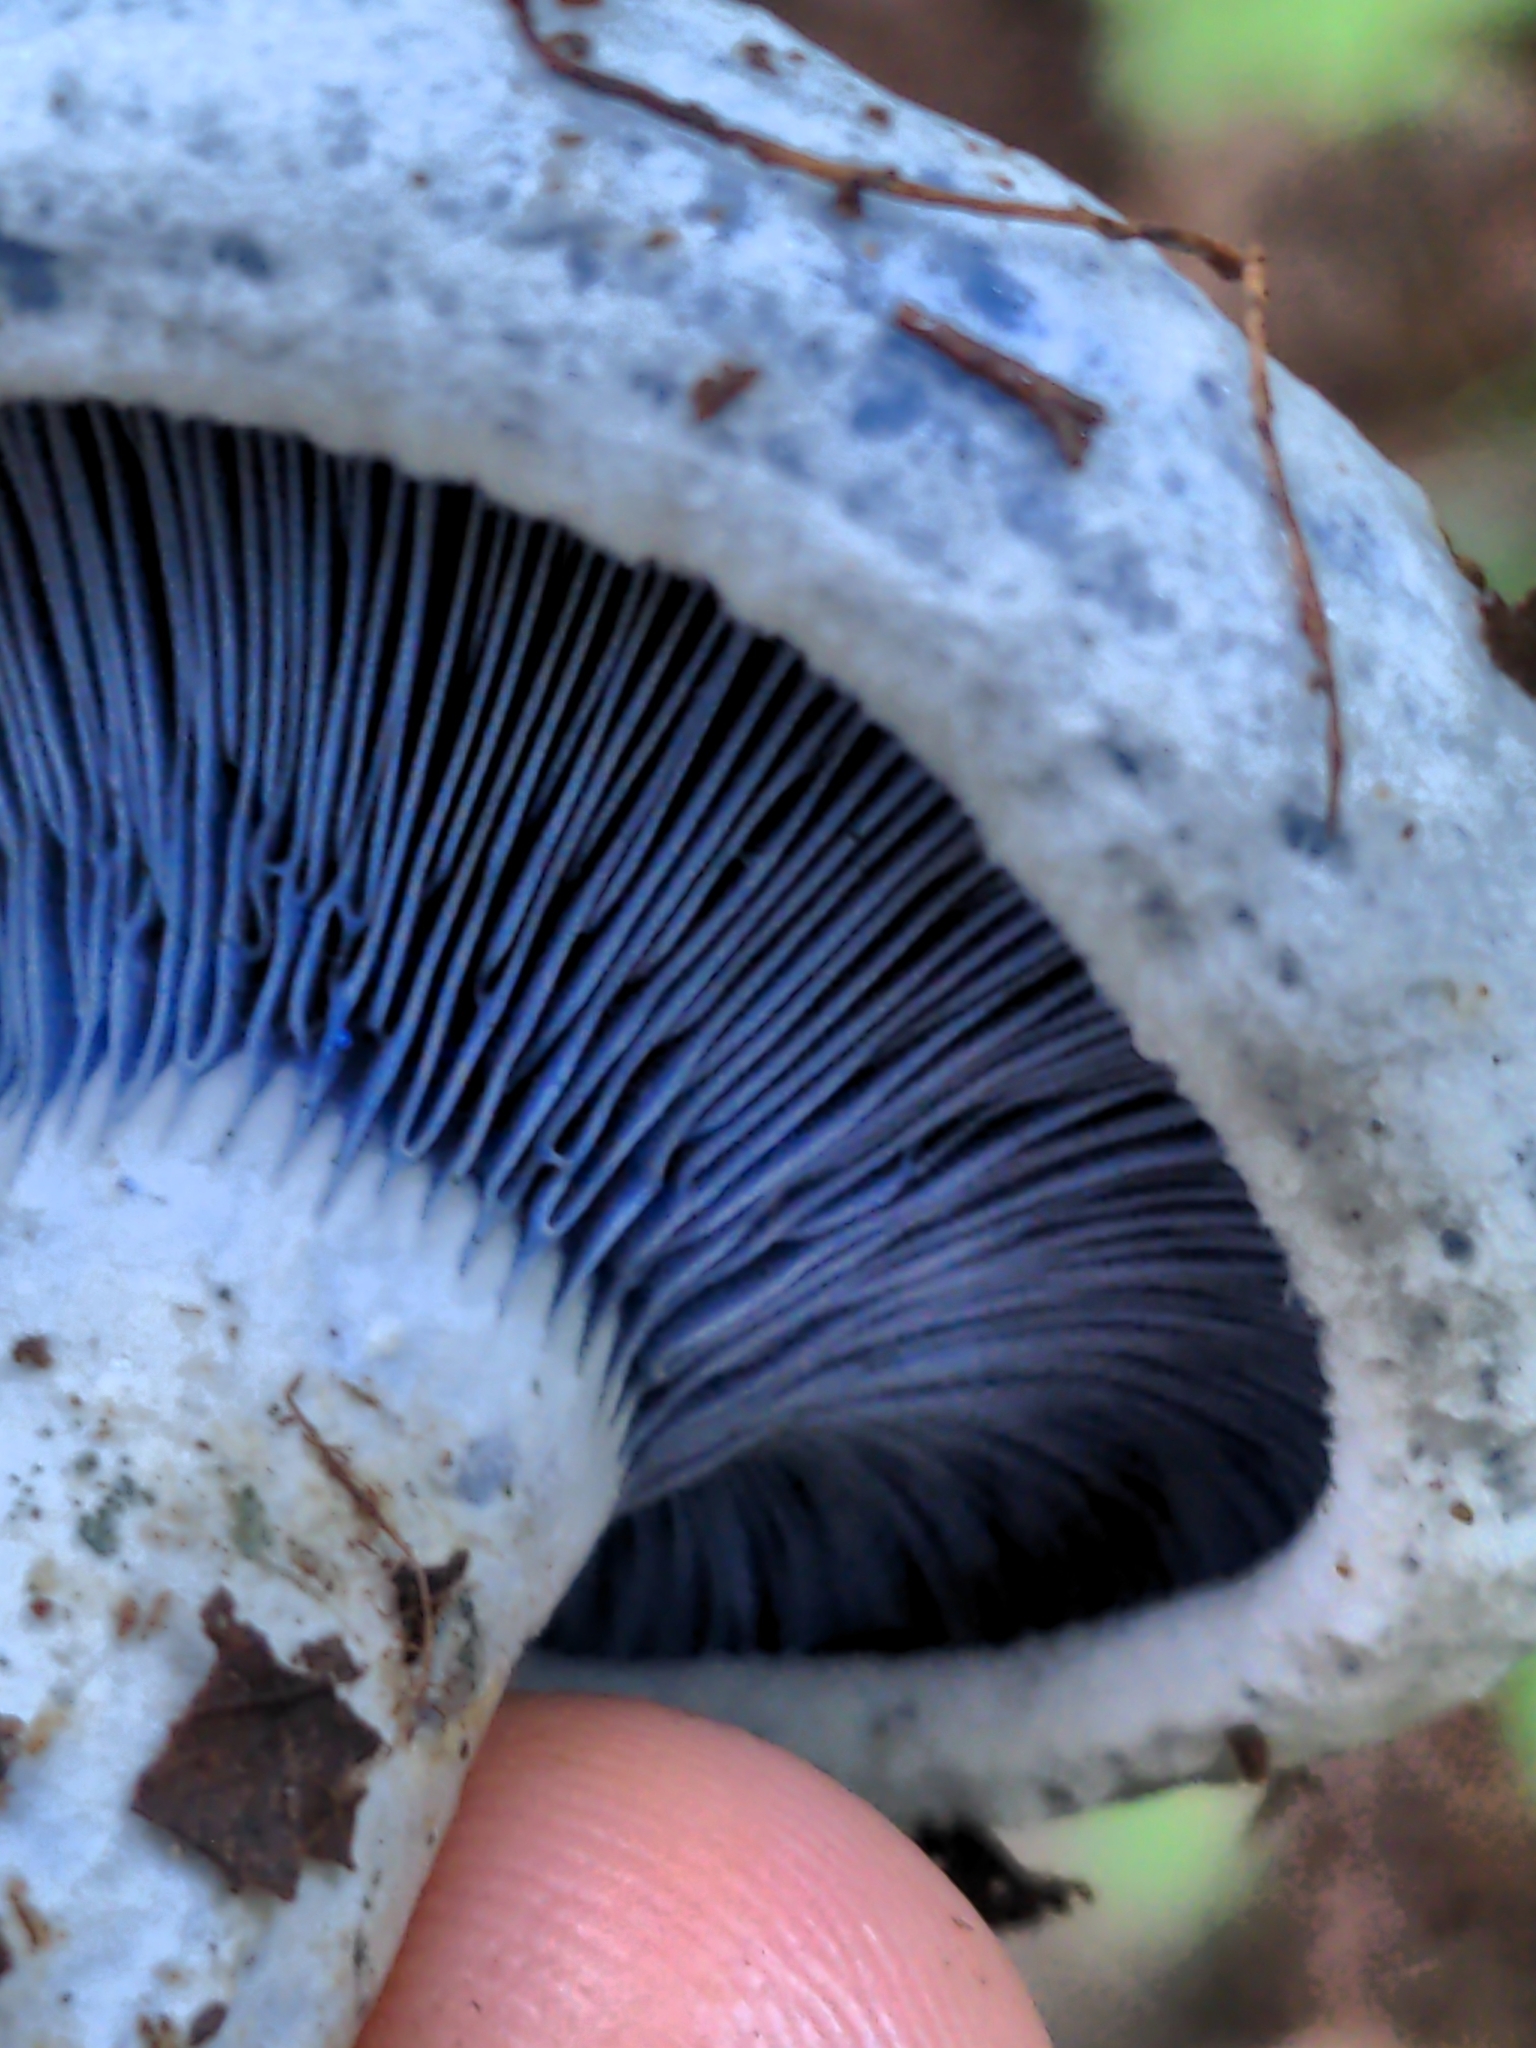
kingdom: Fungi
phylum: Basidiomycota
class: Agaricomycetes
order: Russulales
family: Russulaceae
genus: Lactarius
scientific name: Lactarius indigo
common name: Indigo milk cap
